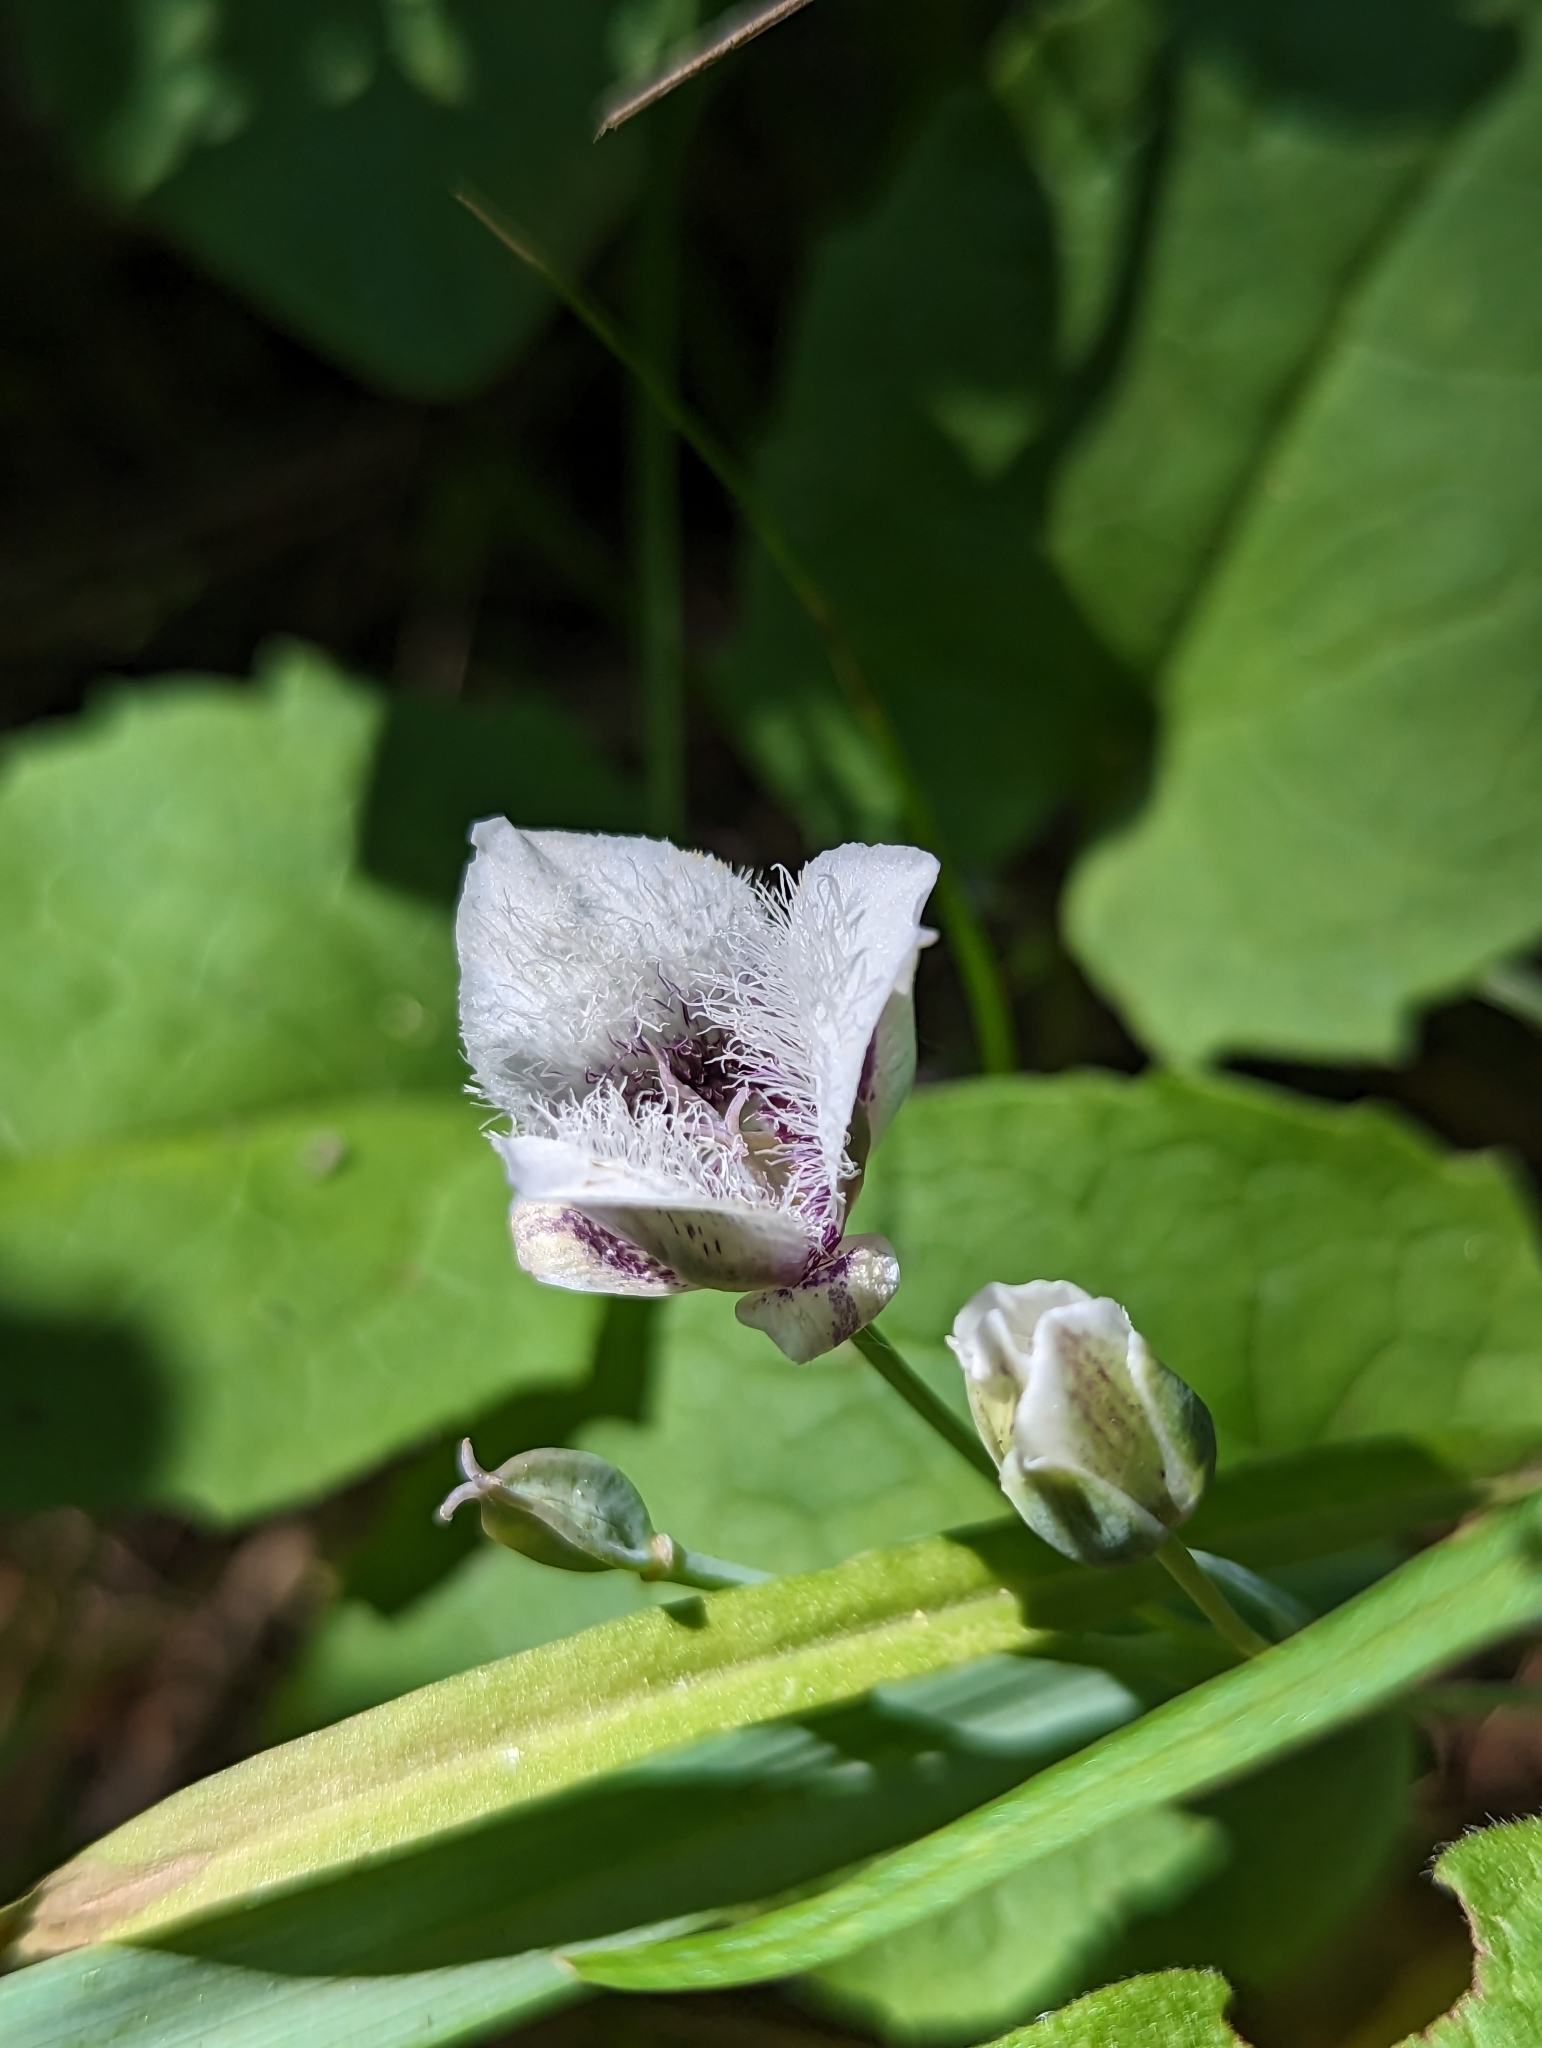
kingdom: Plantae
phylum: Tracheophyta
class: Liliopsida
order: Liliales
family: Liliaceae
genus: Calochortus
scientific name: Calochortus elegans
